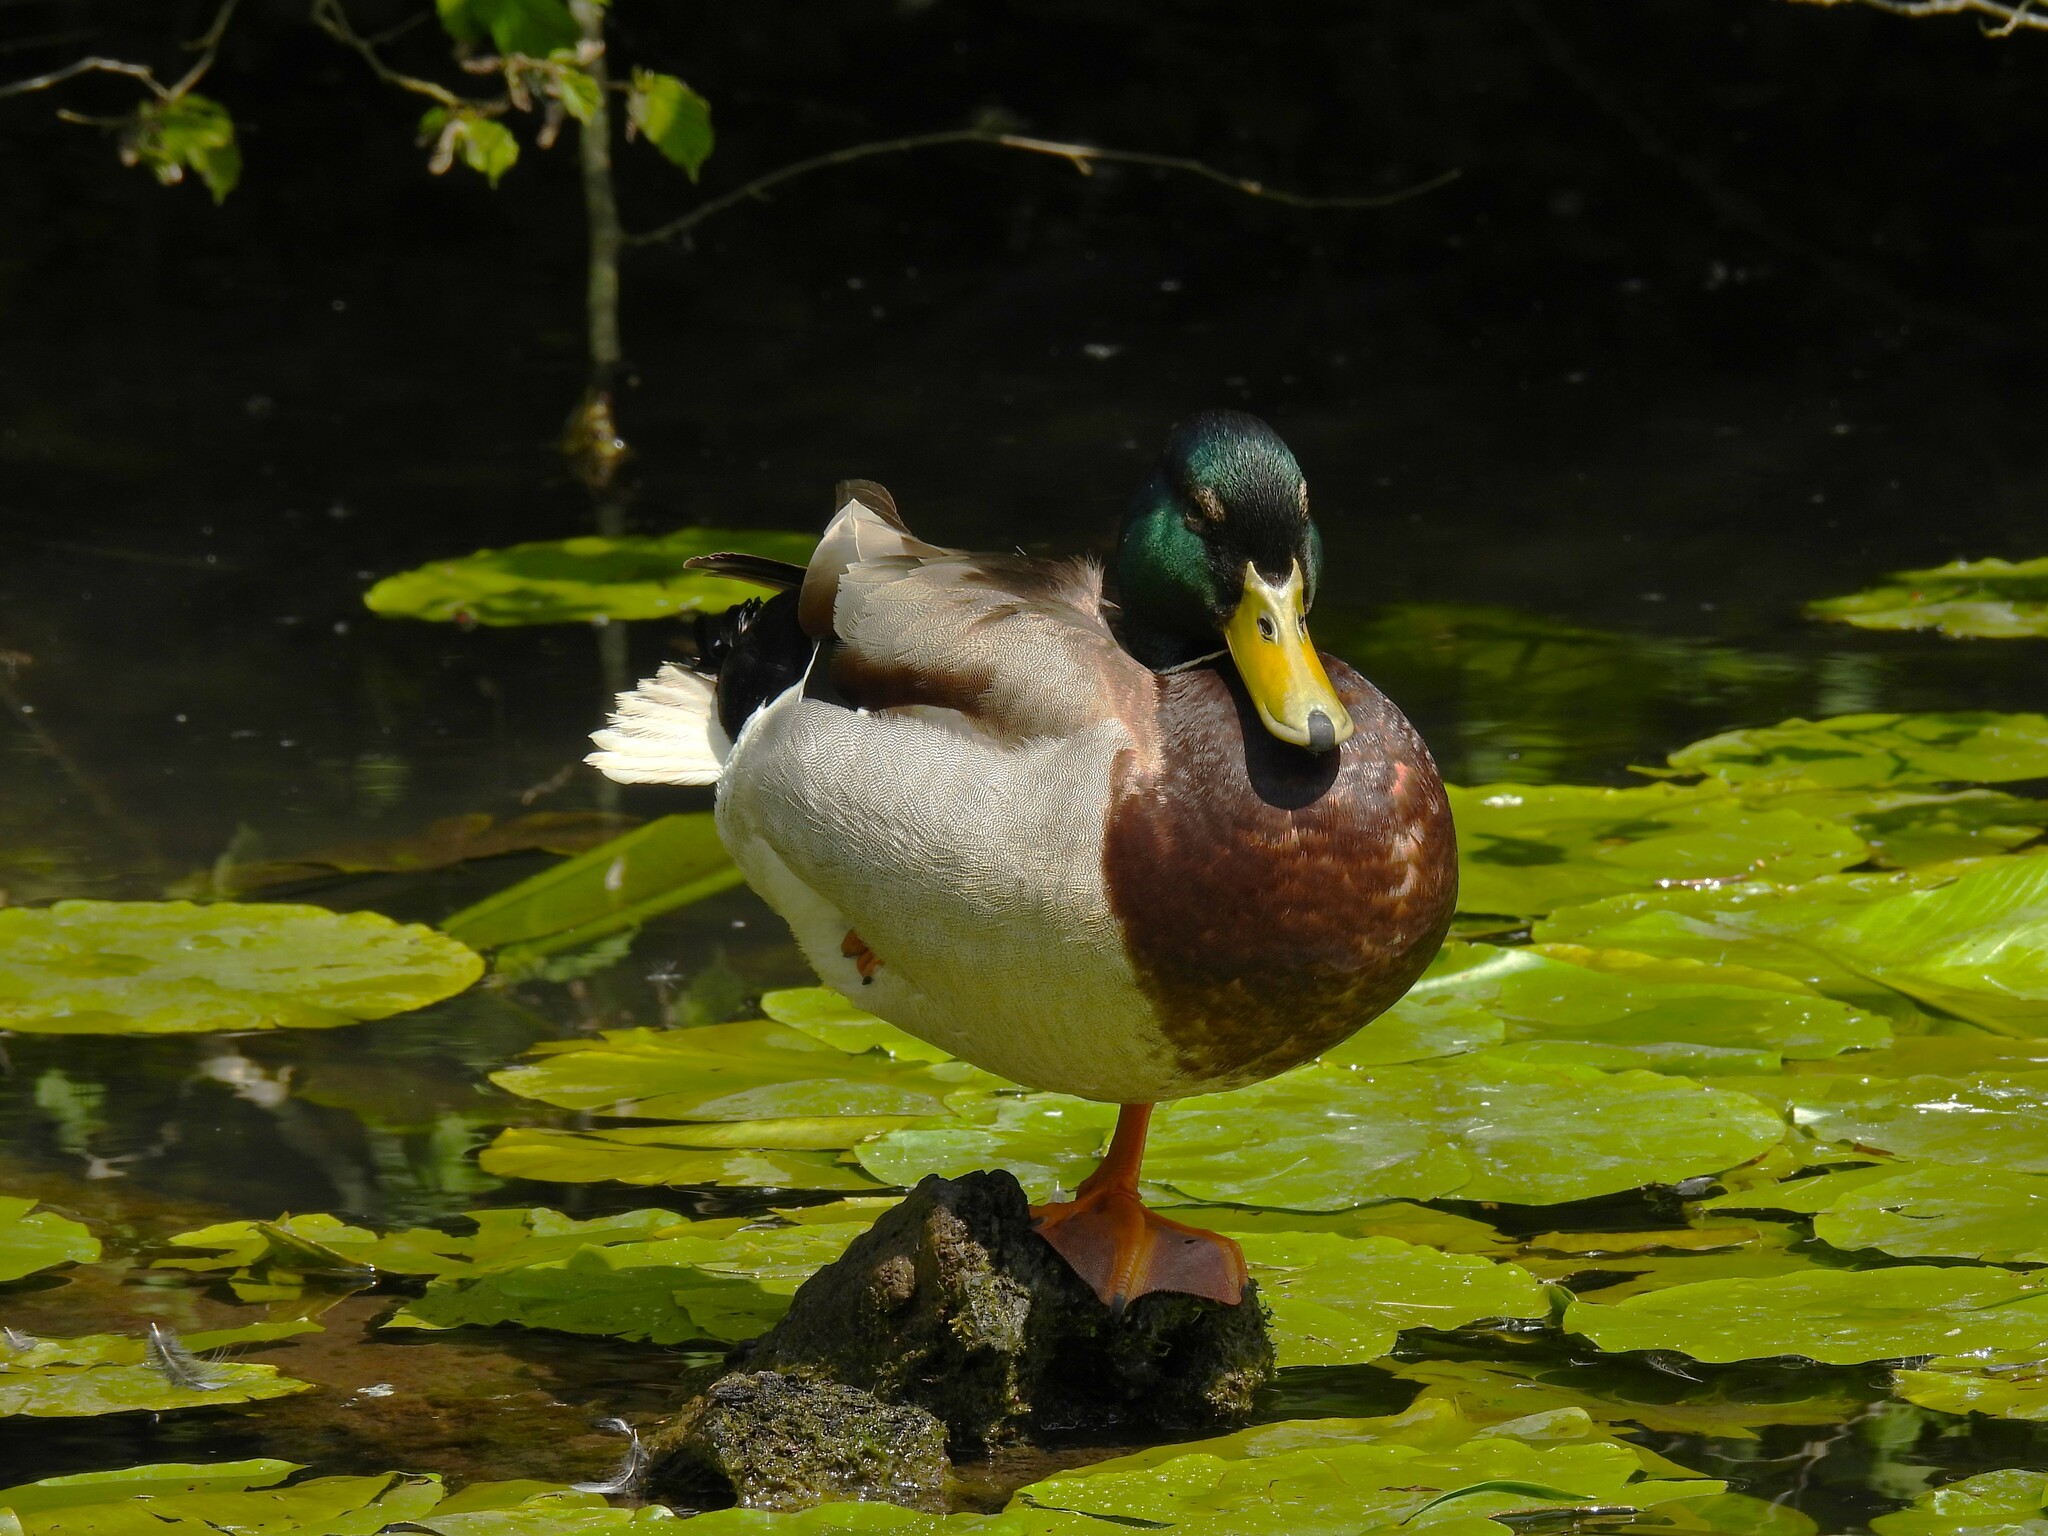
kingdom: Animalia
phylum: Chordata
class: Aves
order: Anseriformes
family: Anatidae
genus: Anas
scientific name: Anas platyrhynchos
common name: Mallard
